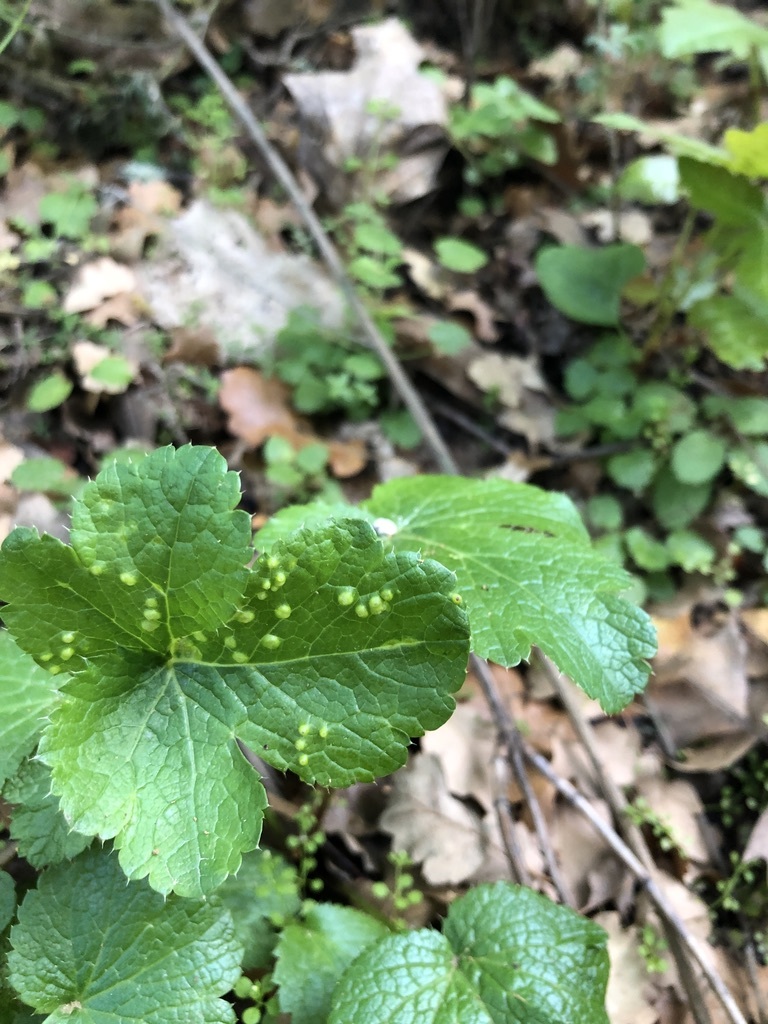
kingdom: Plantae
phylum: Tracheophyta
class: Magnoliopsida
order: Apiales
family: Apiaceae
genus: Sanicula
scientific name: Sanicula crassicaulis
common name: Western snakeroot
